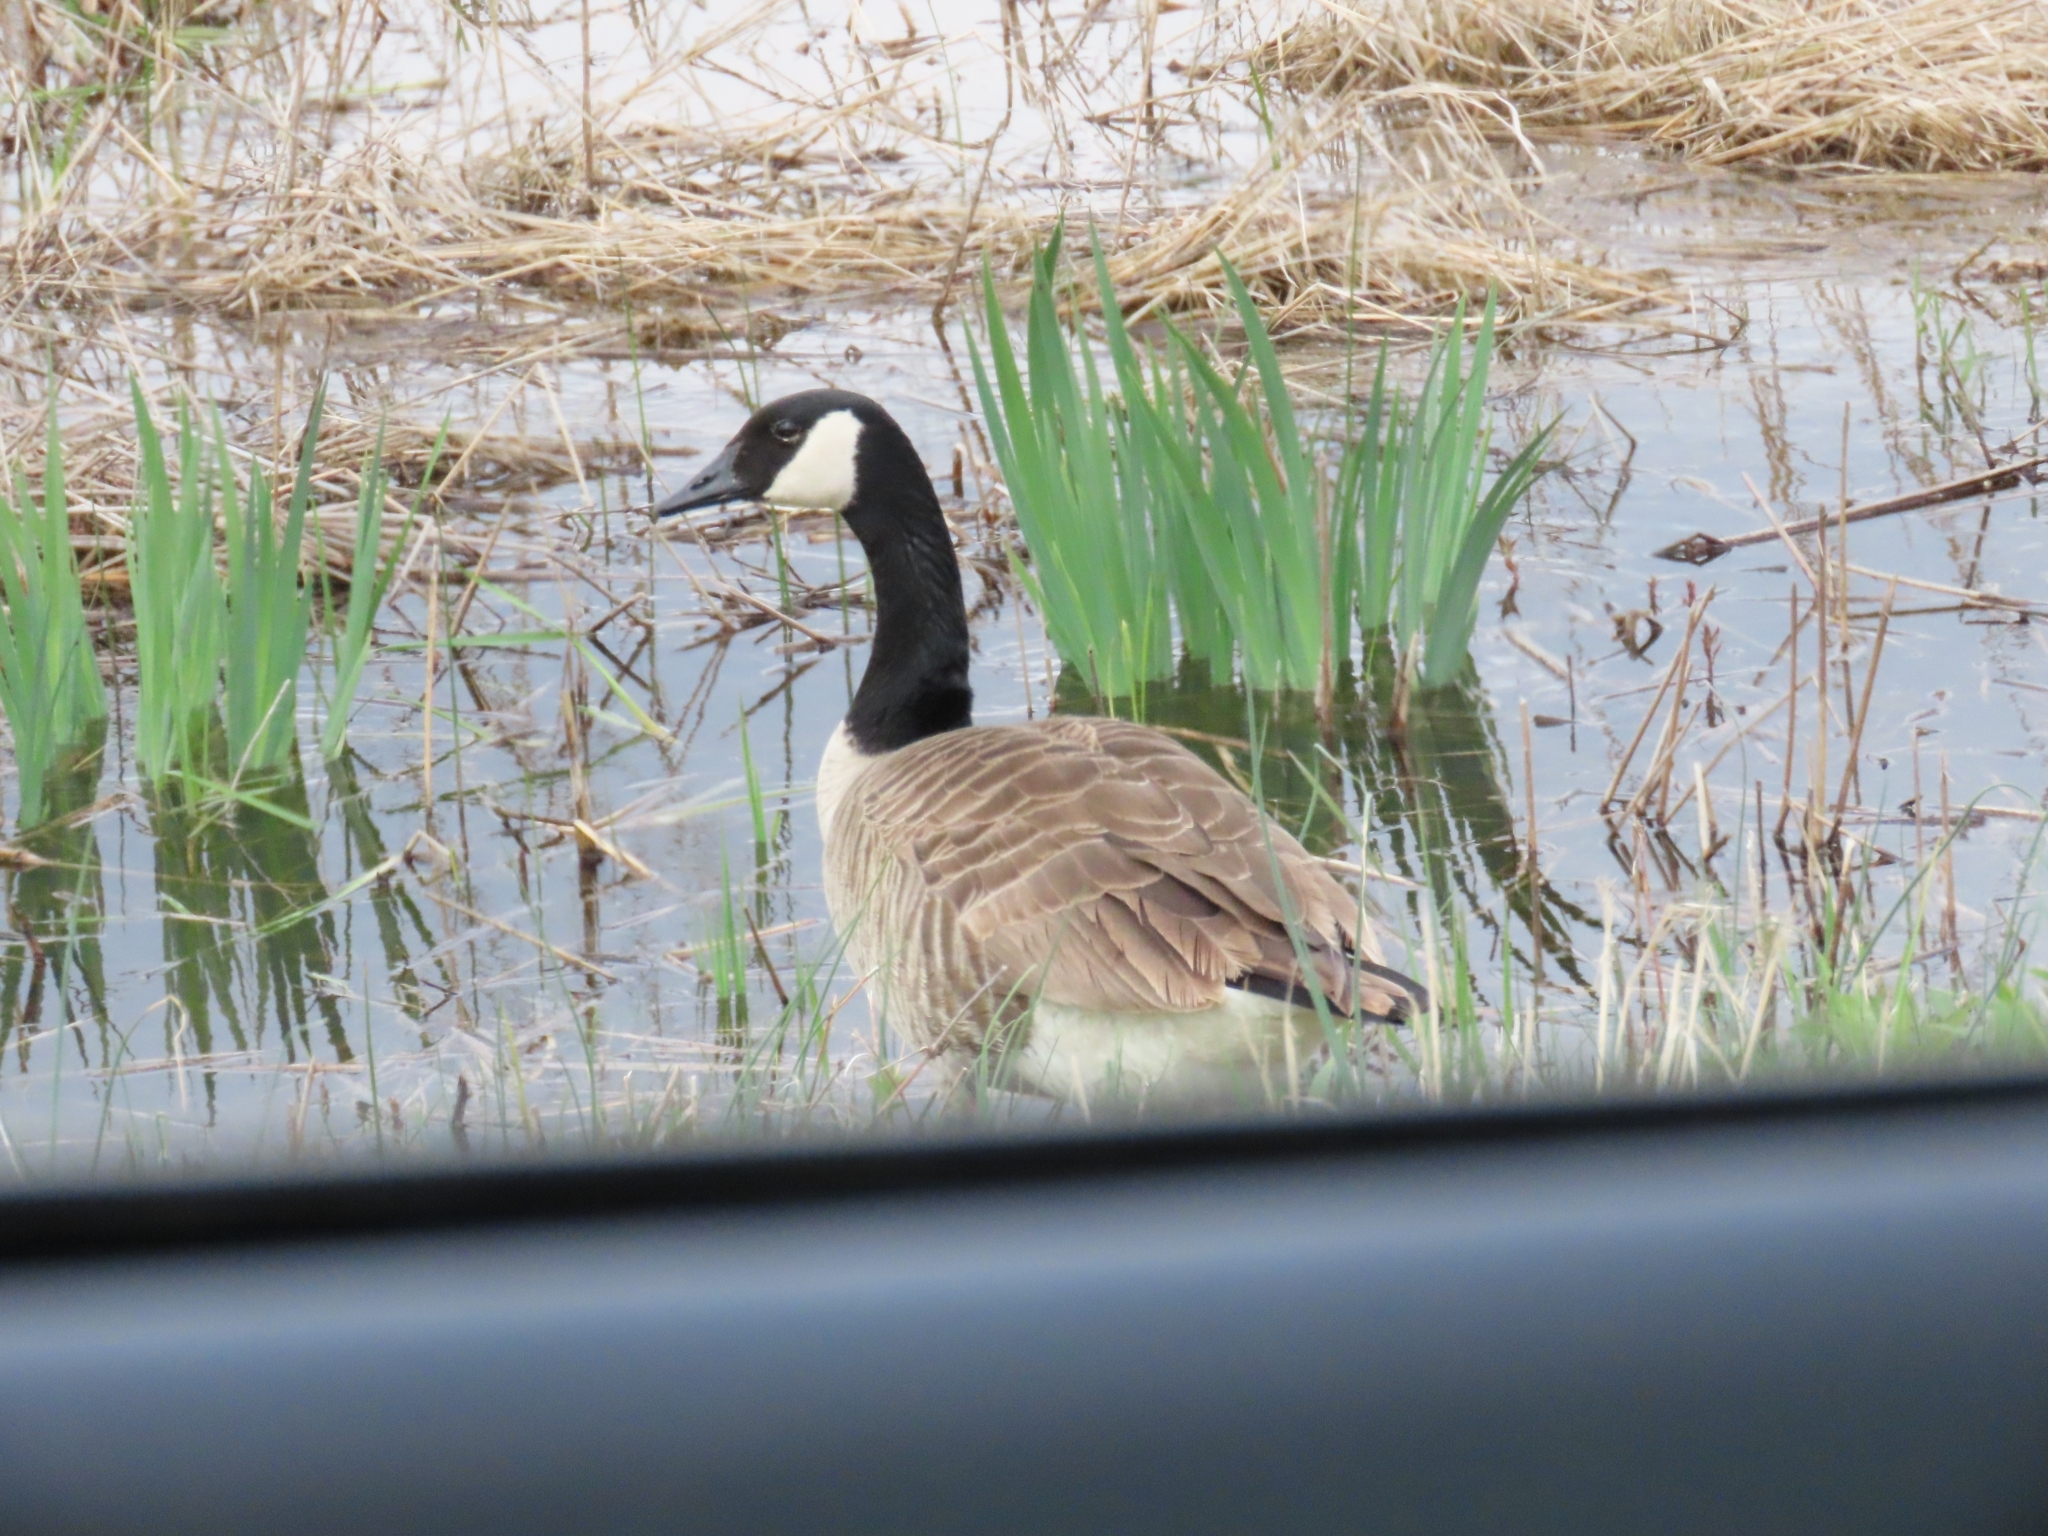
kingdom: Animalia
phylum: Chordata
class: Aves
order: Anseriformes
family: Anatidae
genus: Branta
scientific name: Branta canadensis
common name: Canada goose
